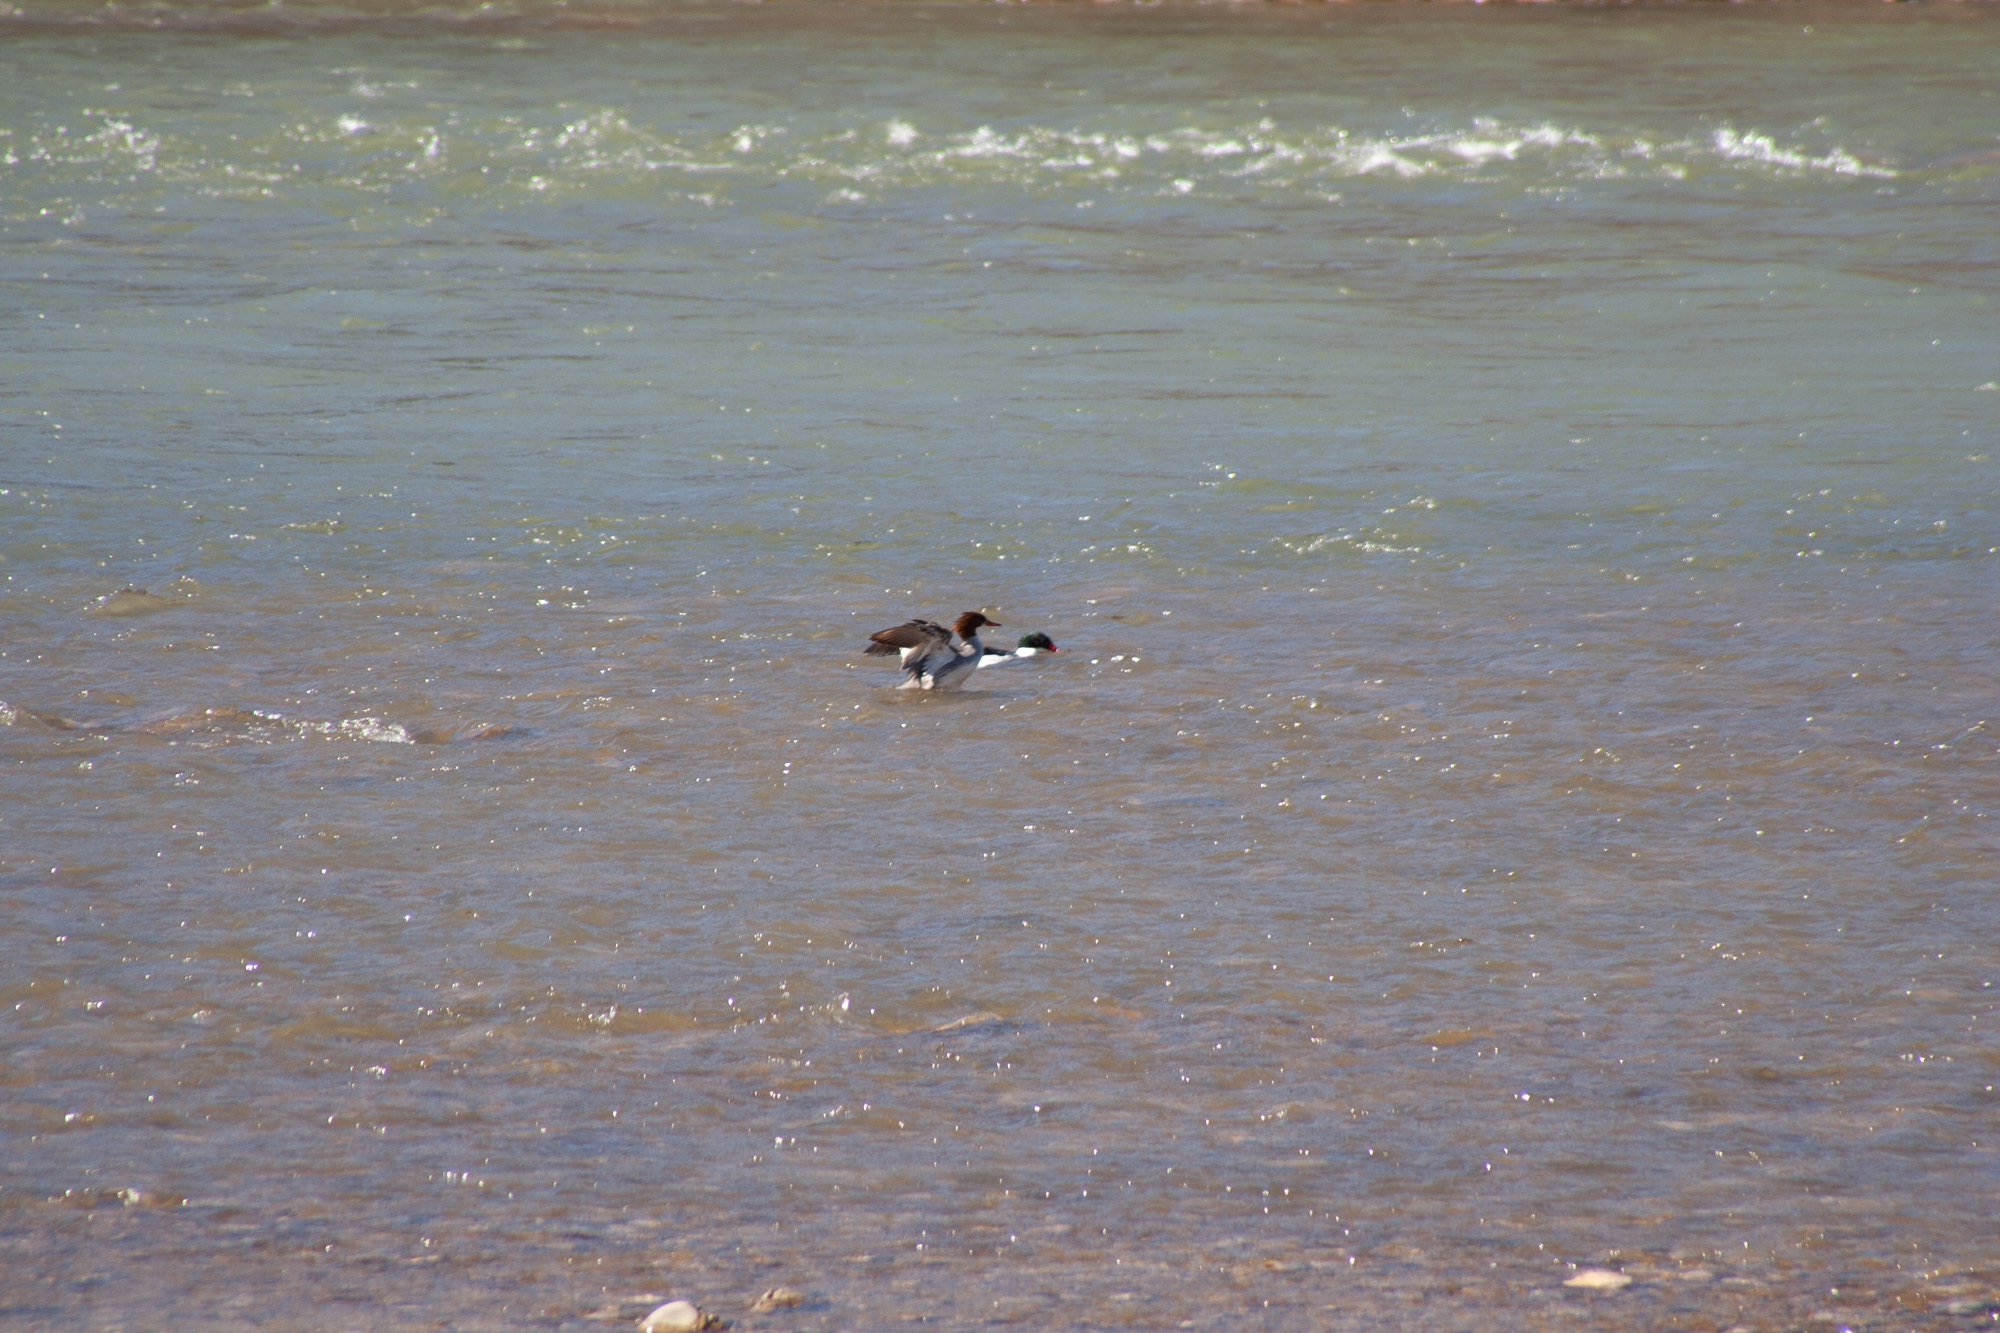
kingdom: Animalia
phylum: Chordata
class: Aves
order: Anseriformes
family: Anatidae
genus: Mergus
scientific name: Mergus merganser
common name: Common merganser
